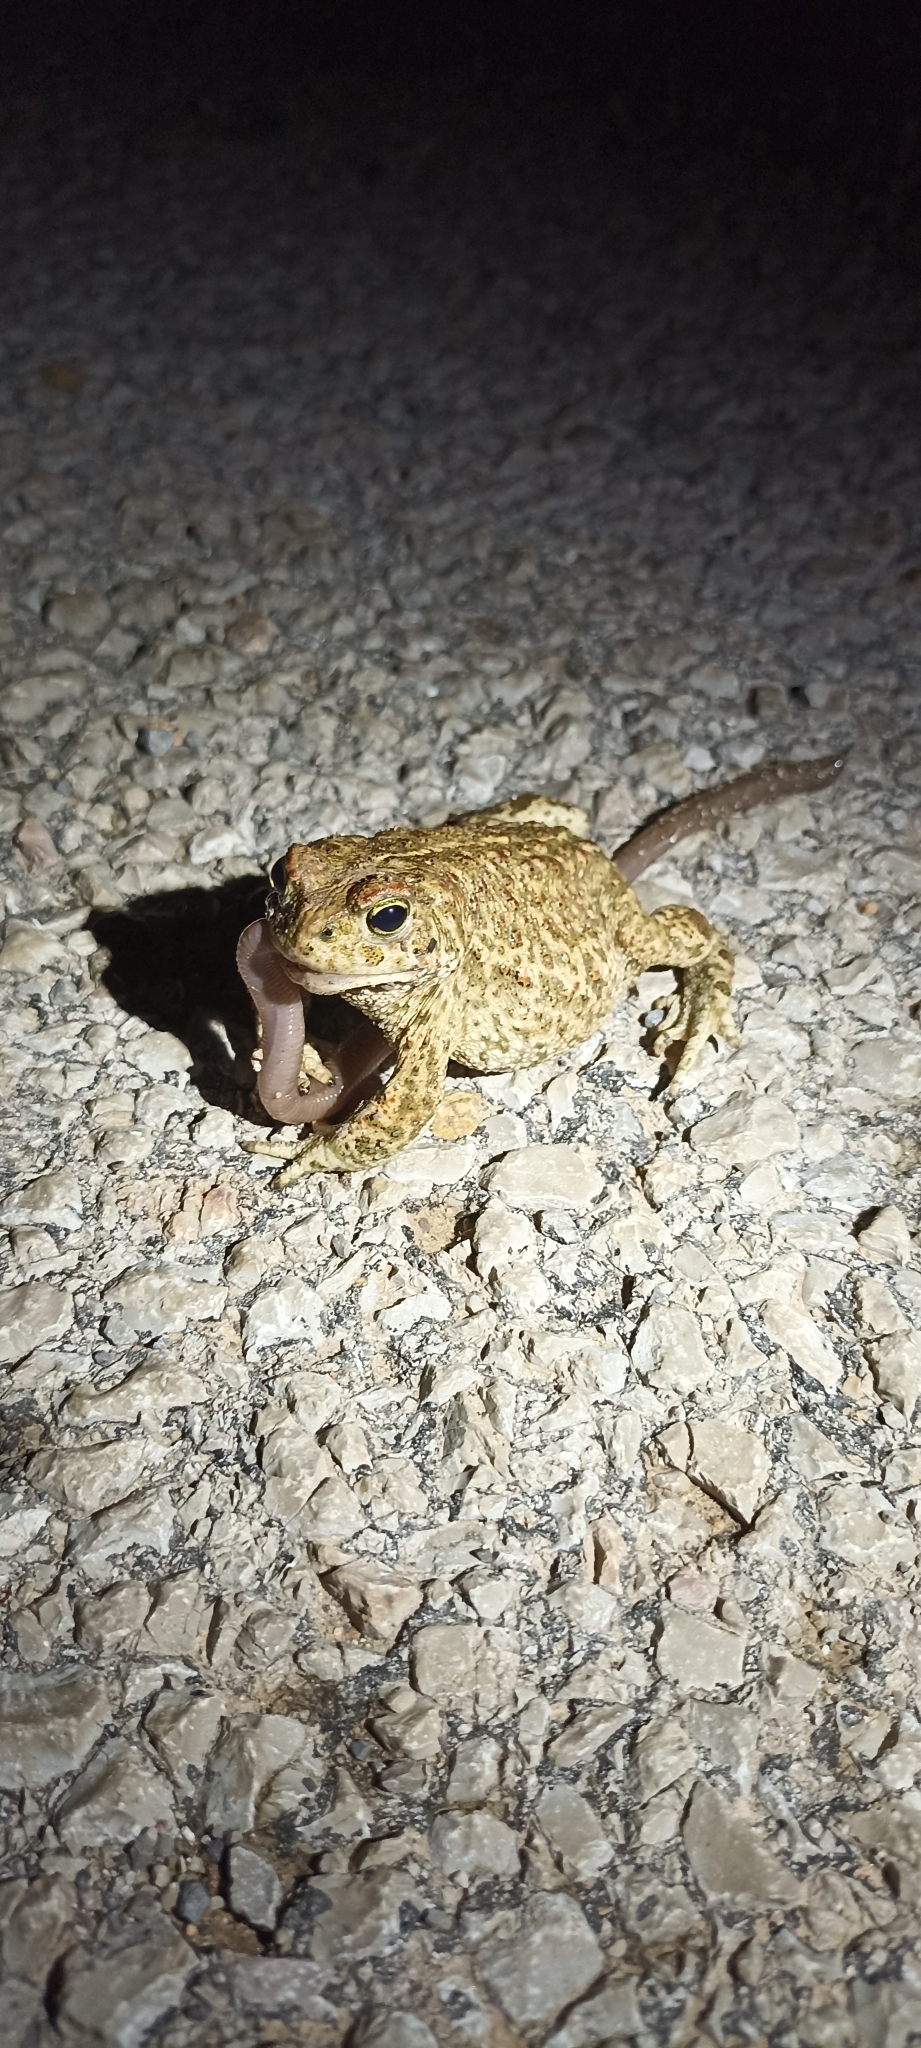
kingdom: Animalia
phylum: Chordata
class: Amphibia
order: Anura
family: Bufonidae
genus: Epidalea
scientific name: Epidalea calamita
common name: Natterjack toad
